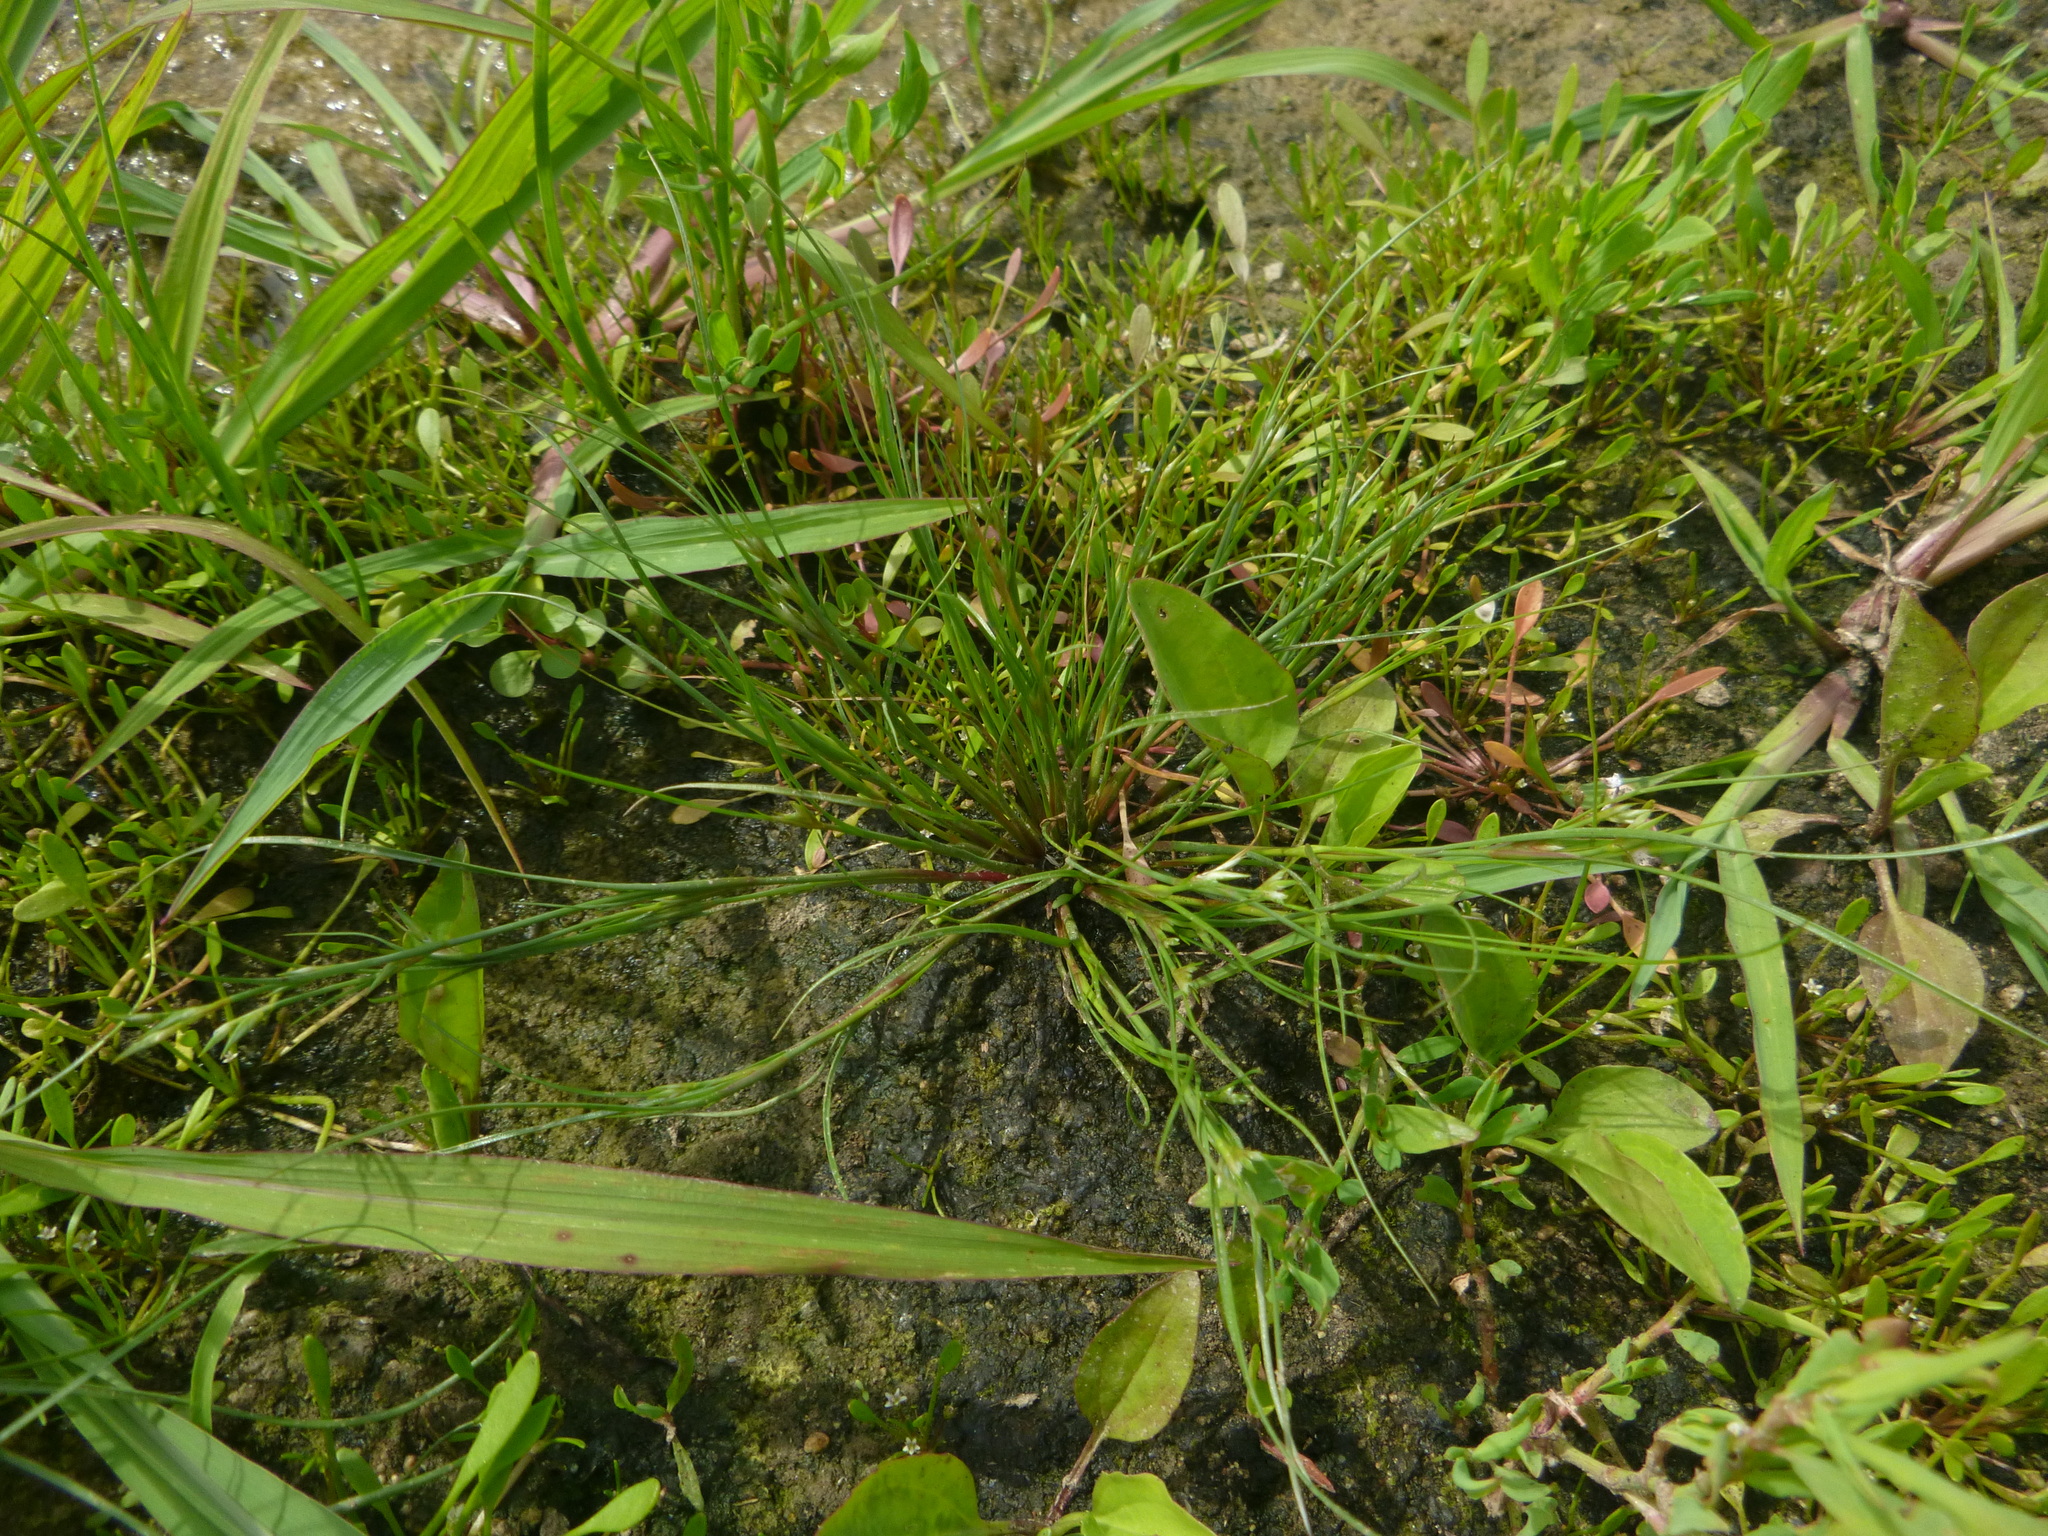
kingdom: Plantae
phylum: Tracheophyta
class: Liliopsida
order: Poales
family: Juncaceae
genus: Juncus
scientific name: Juncus bufonius
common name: Toad rush
